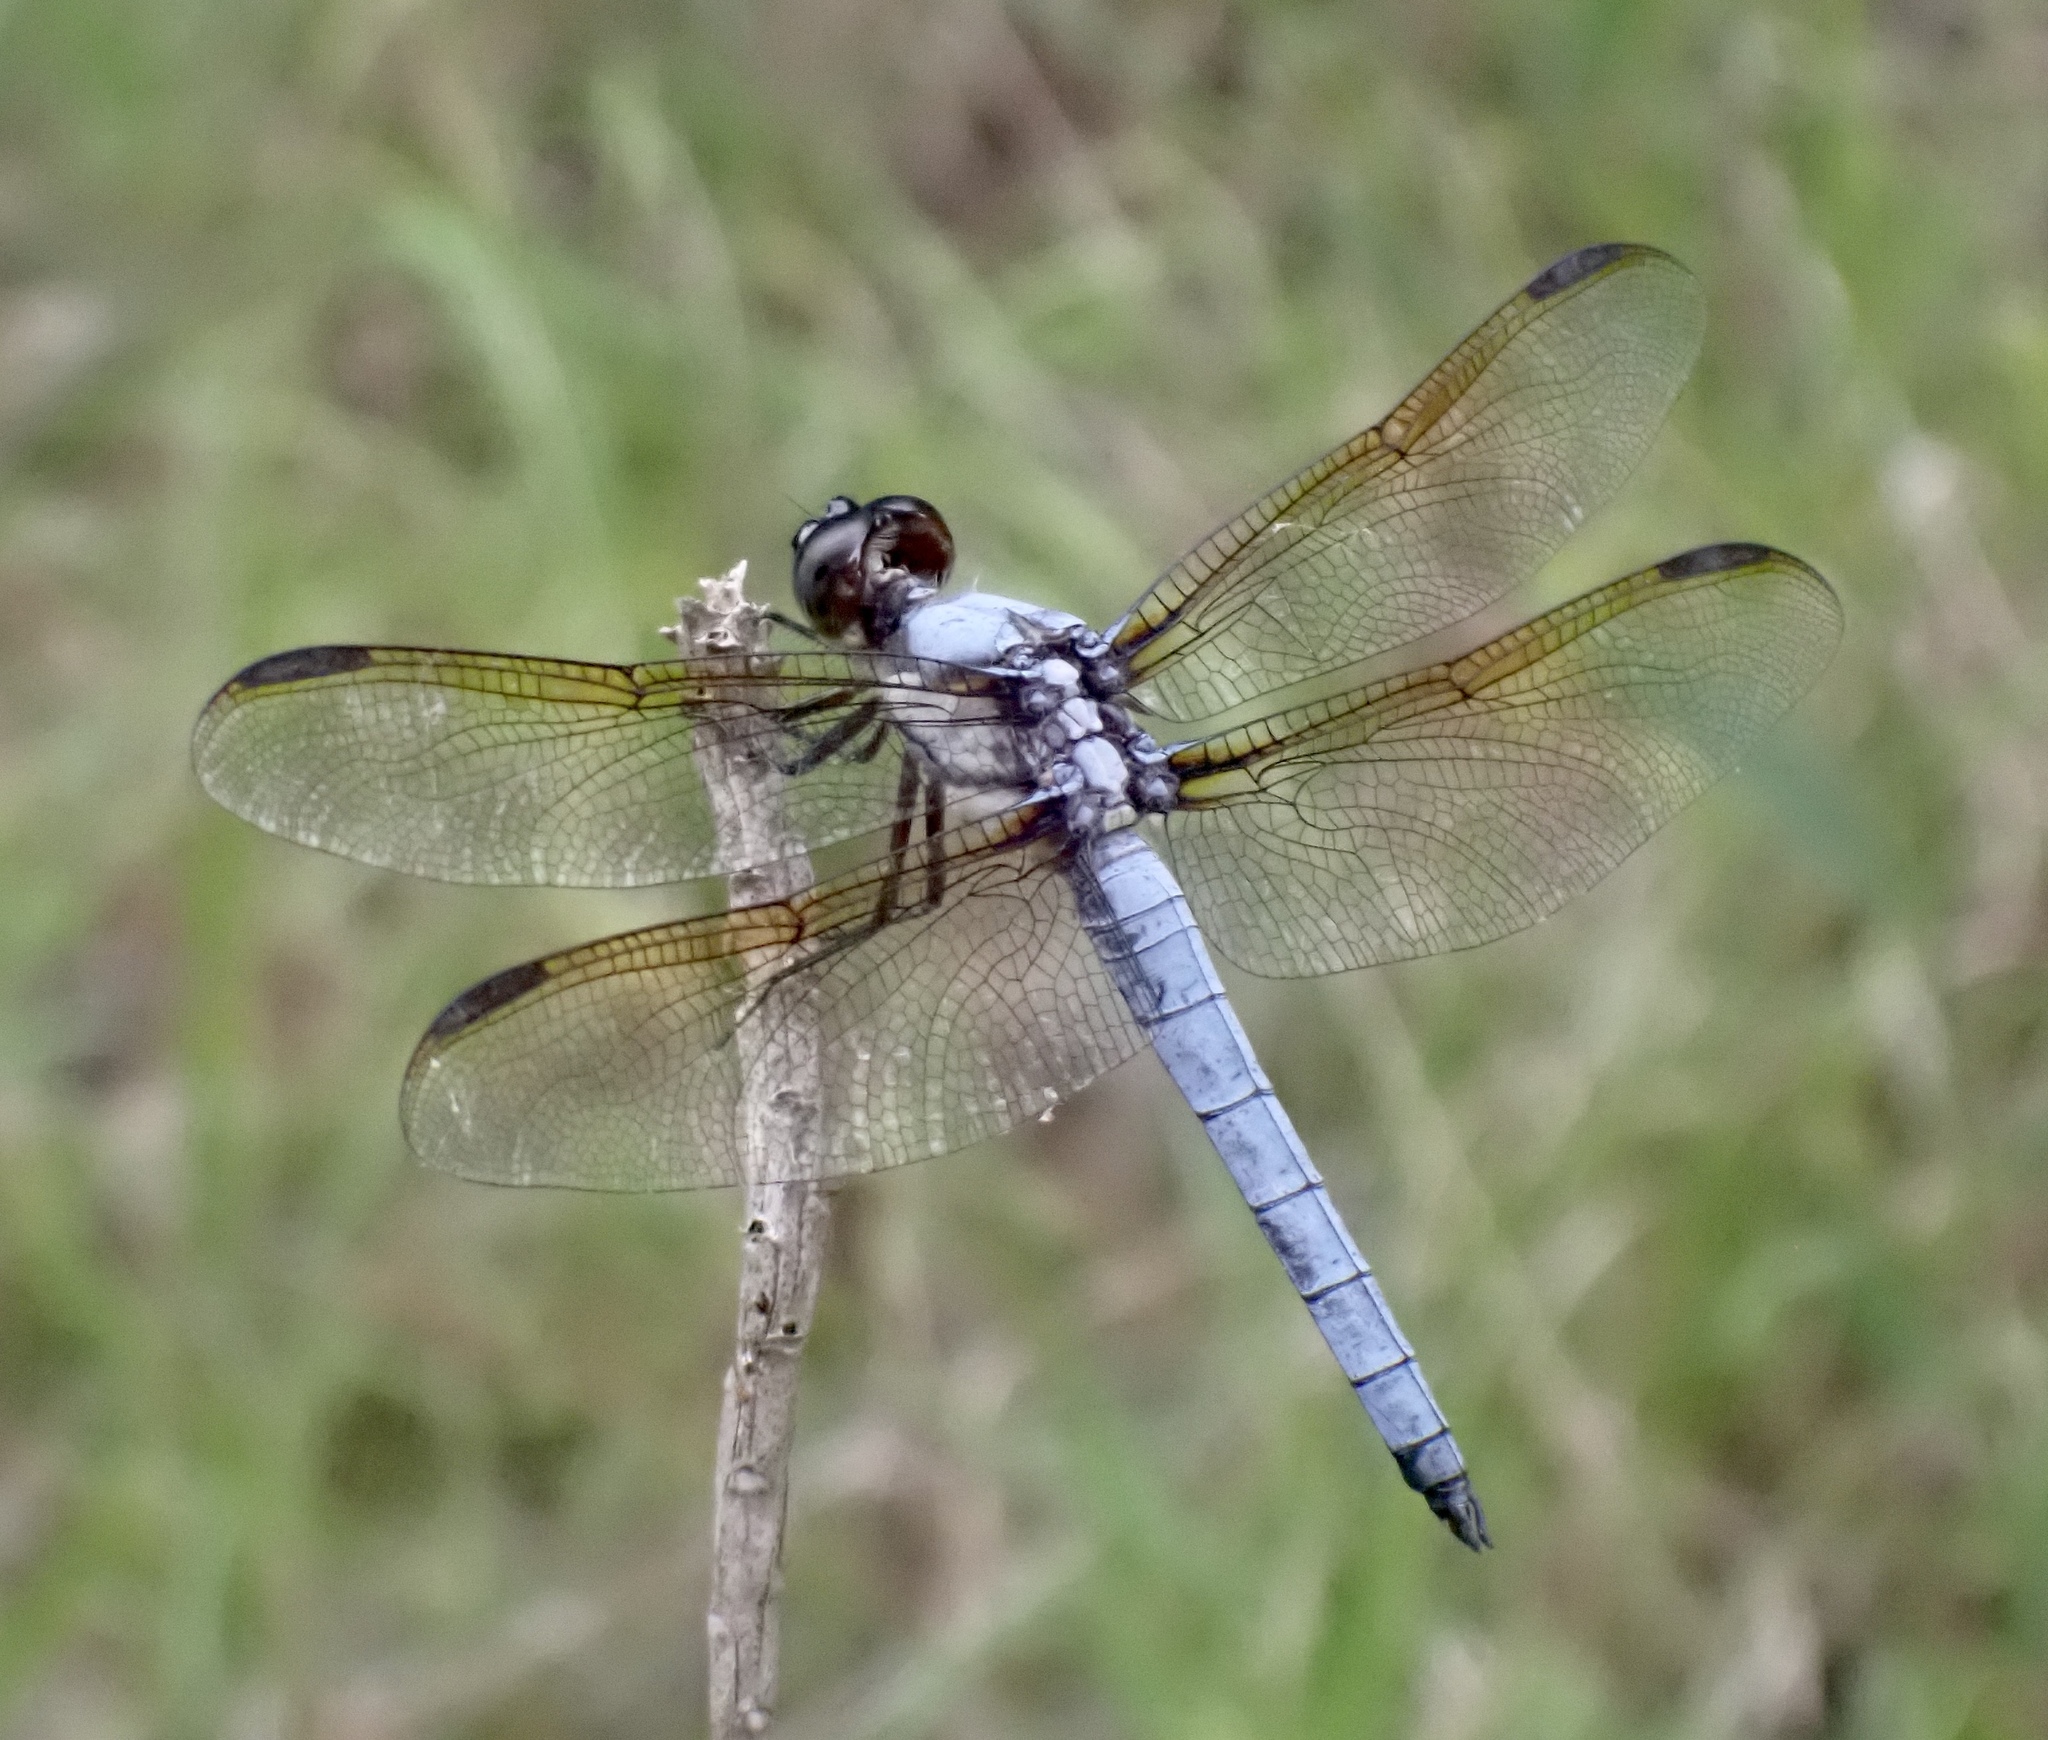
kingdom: Animalia
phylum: Arthropoda
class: Insecta
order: Odonata
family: Libellulidae
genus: Libellula
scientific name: Libellula flavida
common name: Yellow-sided skimmer
